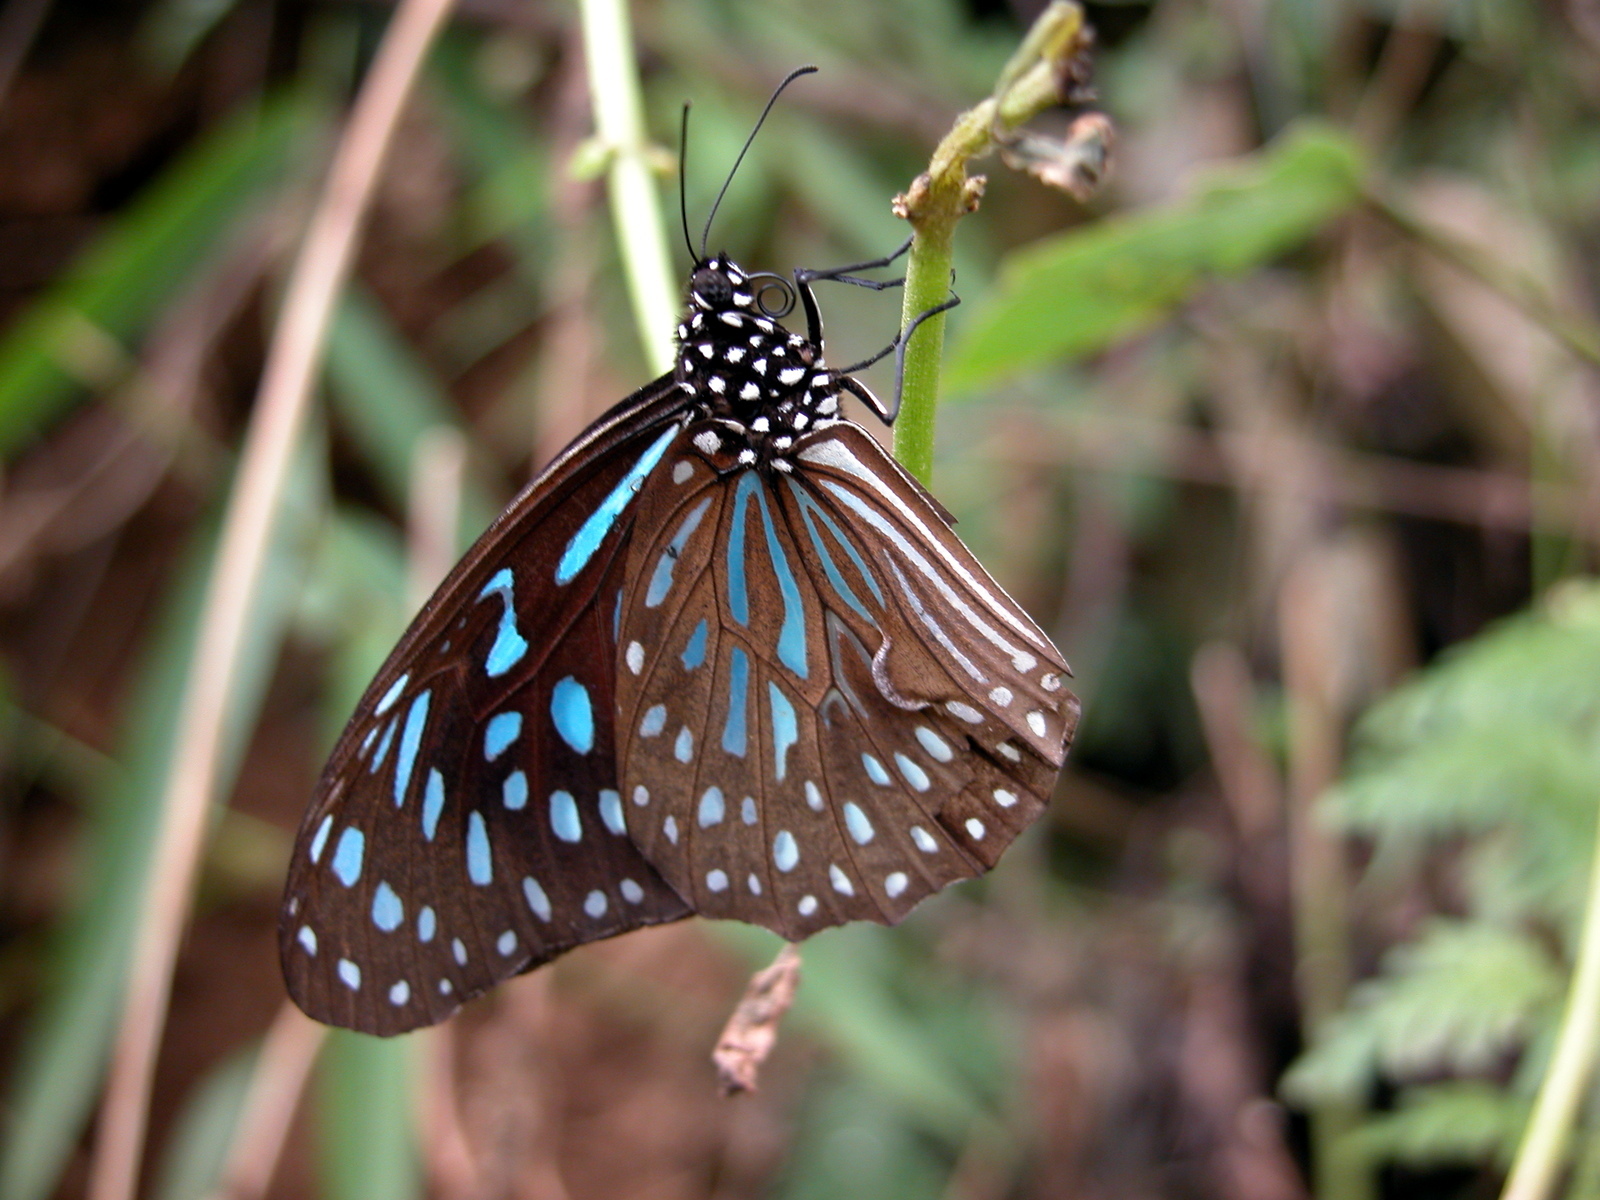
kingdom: Animalia
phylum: Arthropoda
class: Insecta
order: Lepidoptera
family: Nymphalidae
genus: Tirumala
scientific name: Tirumala septentrionis
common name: Dark blue tiger butterfly
